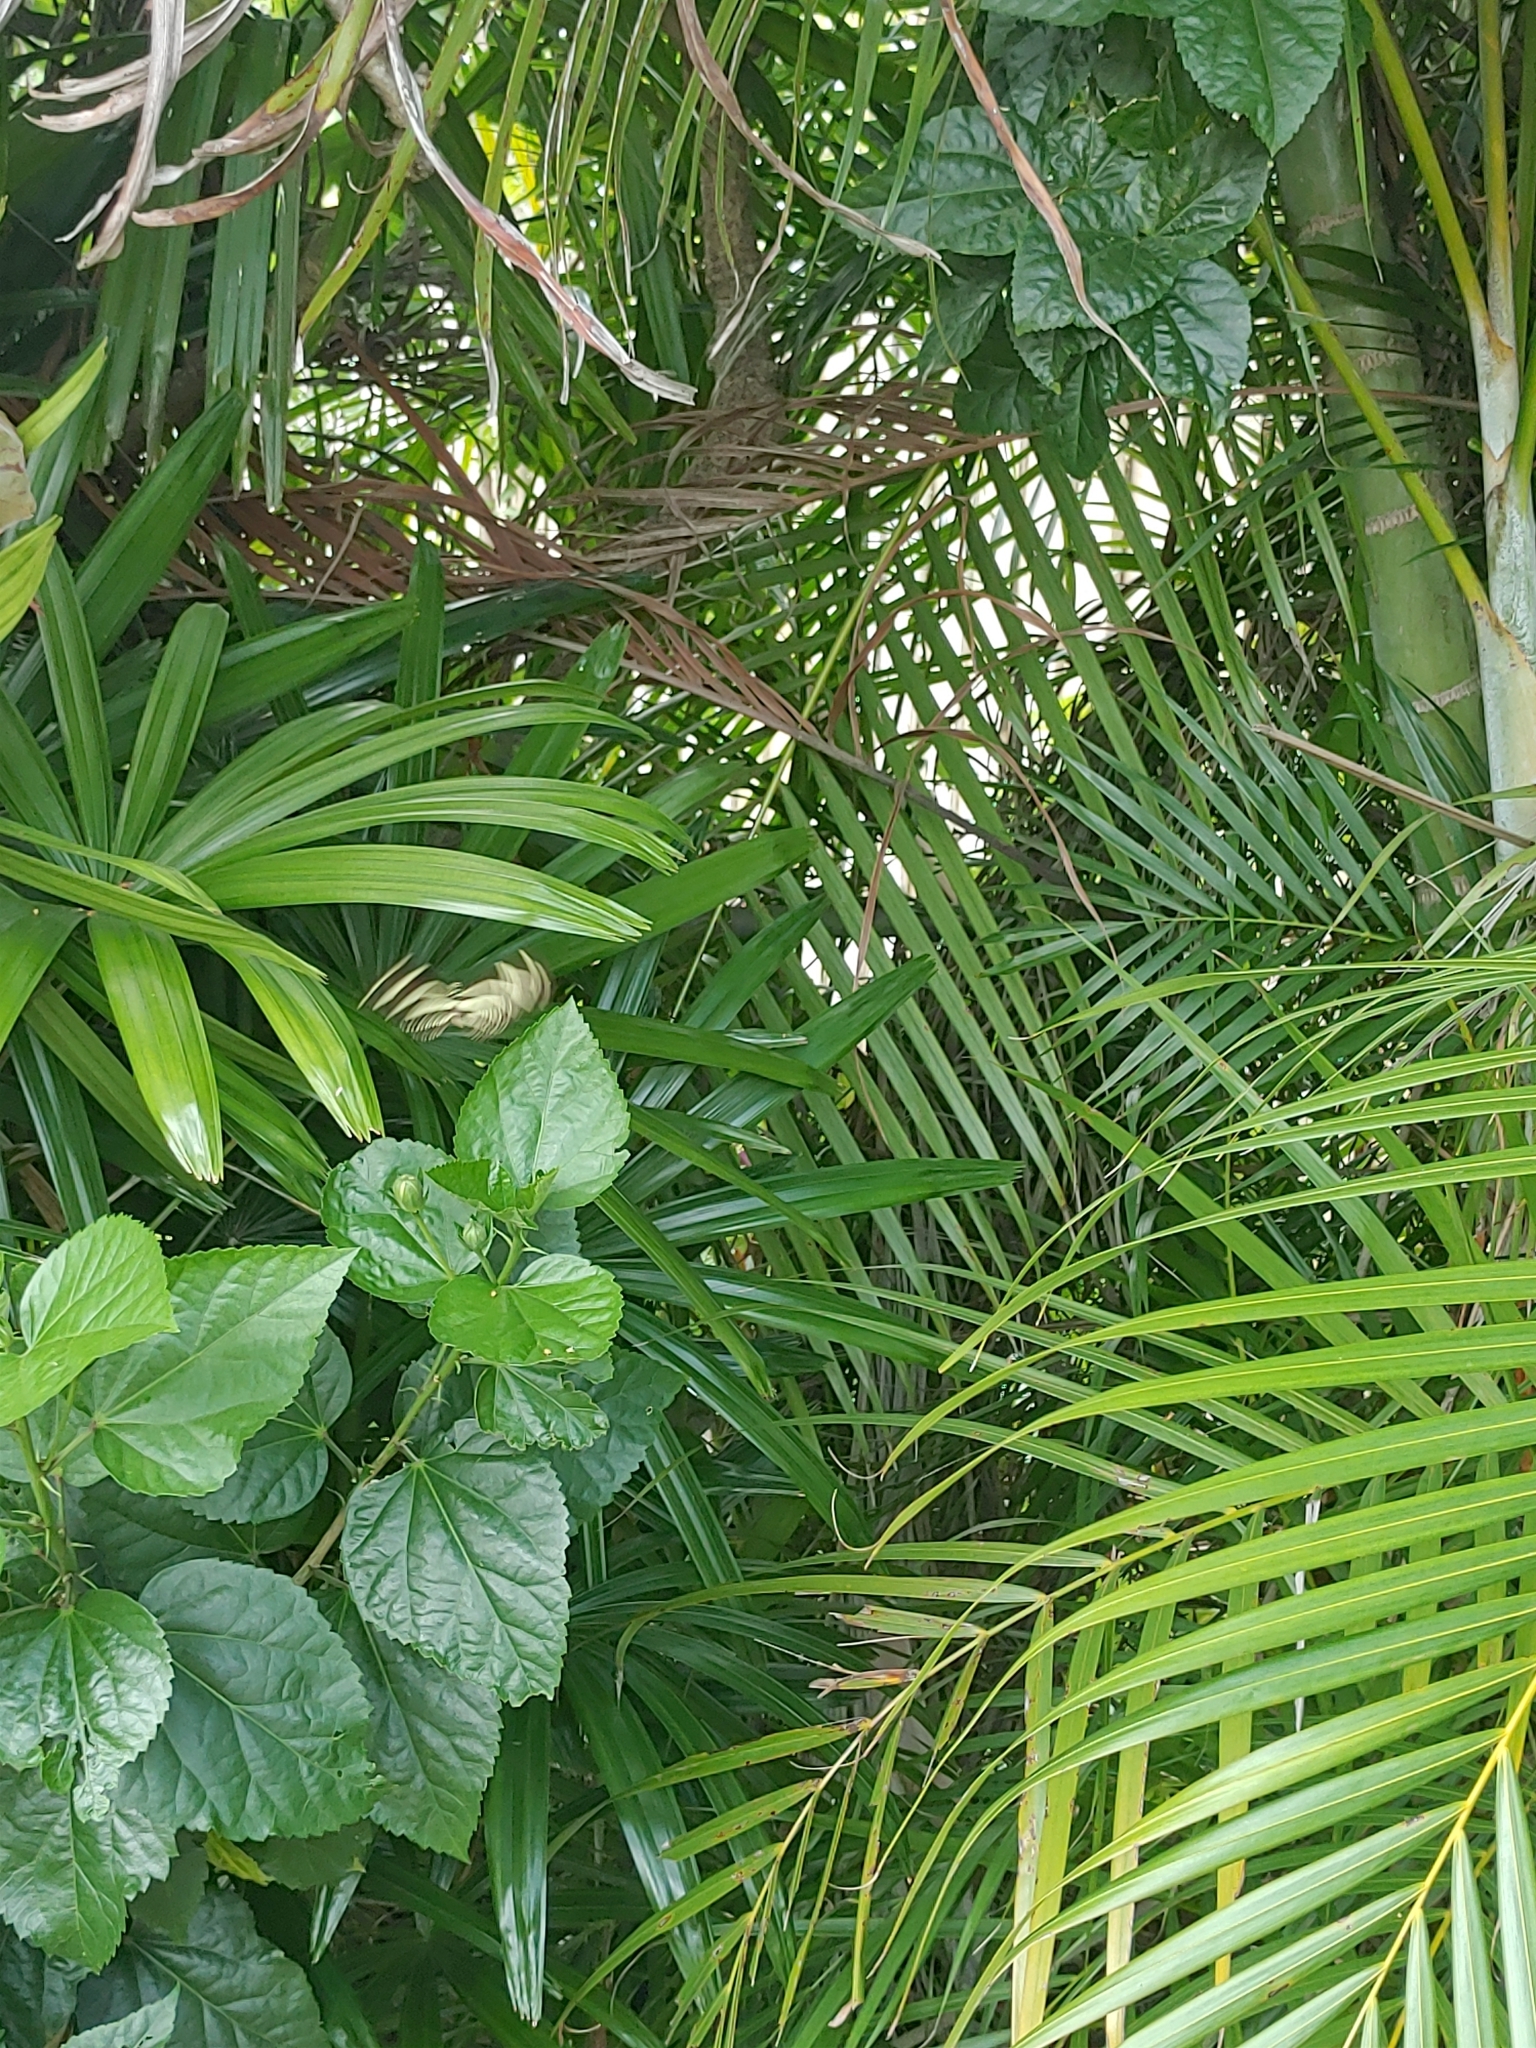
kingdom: Animalia
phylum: Arthropoda
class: Insecta
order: Lepidoptera
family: Nymphalidae
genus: Heliconius
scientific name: Heliconius charithonia
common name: Zebra long wing
